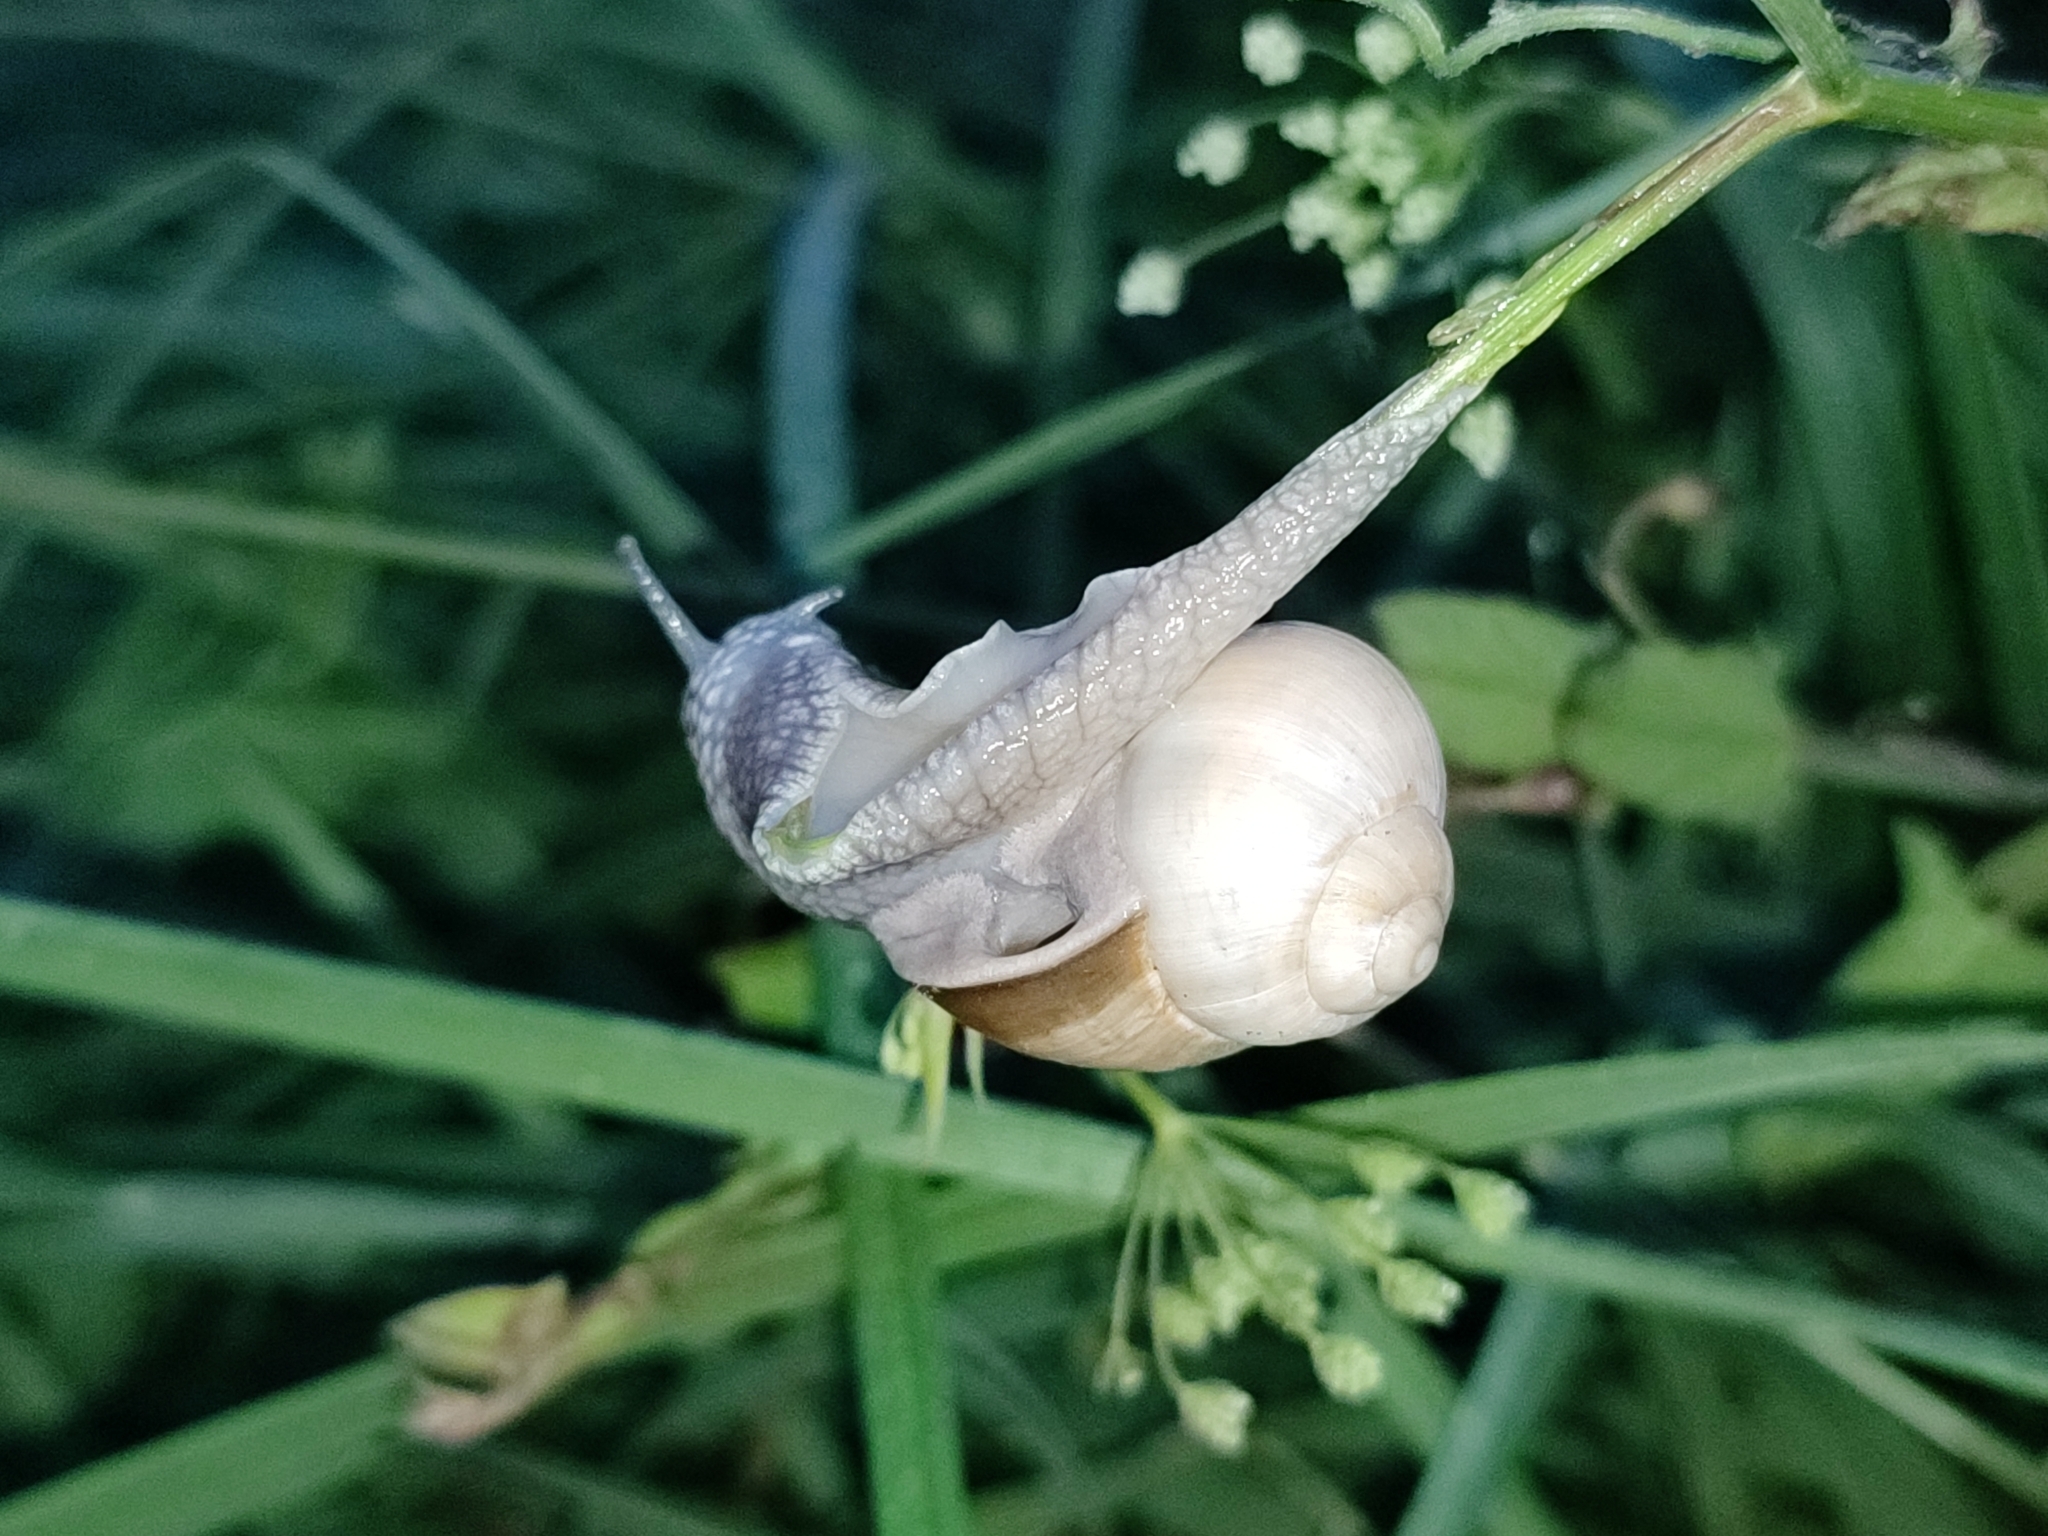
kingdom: Animalia
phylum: Mollusca
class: Gastropoda
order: Stylommatophora
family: Helicidae
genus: Helix
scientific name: Helix lutescens
